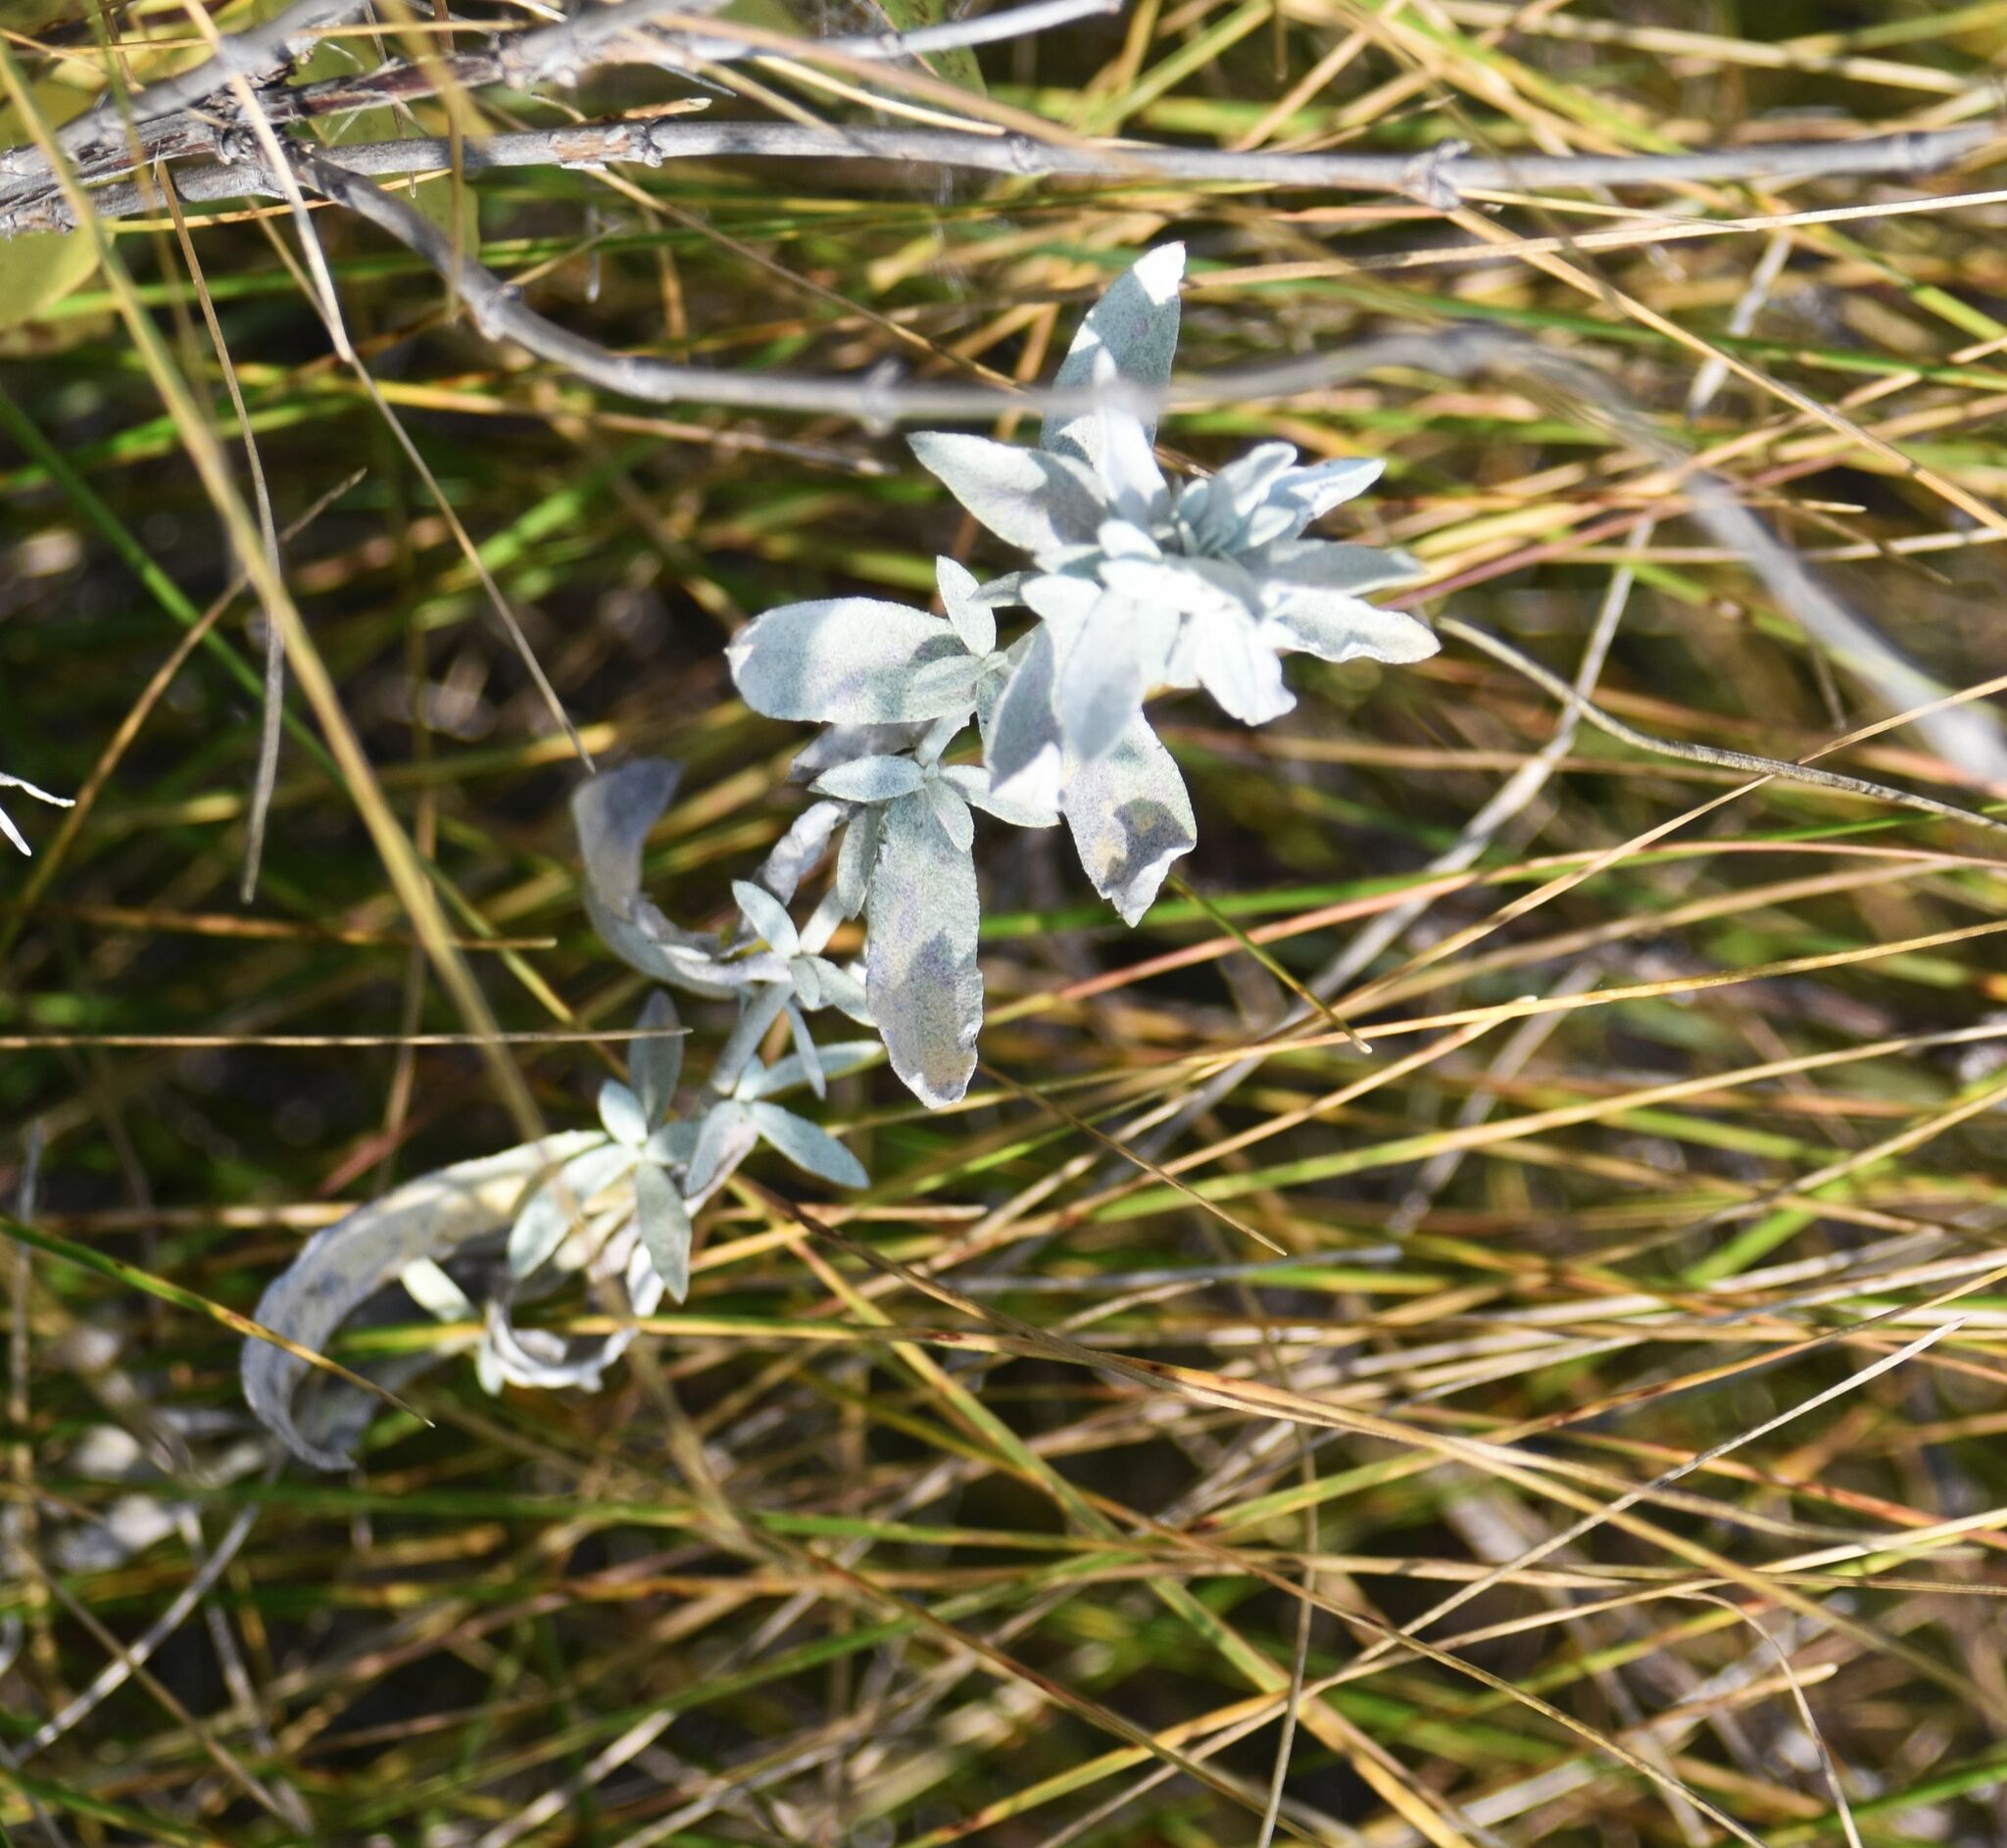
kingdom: Plantae
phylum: Tracheophyta
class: Magnoliopsida
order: Asterales
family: Asteraceae
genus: Artemisia
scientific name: Artemisia ludoviciana
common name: Western mugwort
